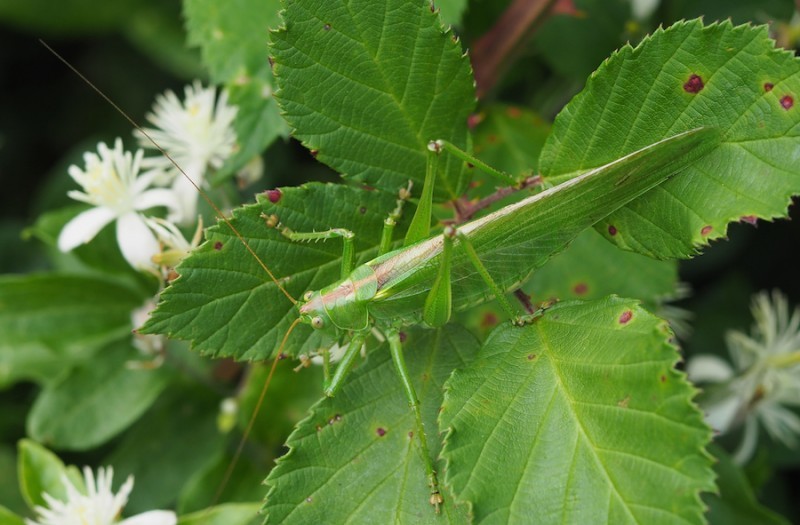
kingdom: Animalia
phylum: Arthropoda
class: Insecta
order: Orthoptera
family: Tettigoniidae
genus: Tettigonia
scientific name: Tettigonia viridissima
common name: Great green bush-cricket
